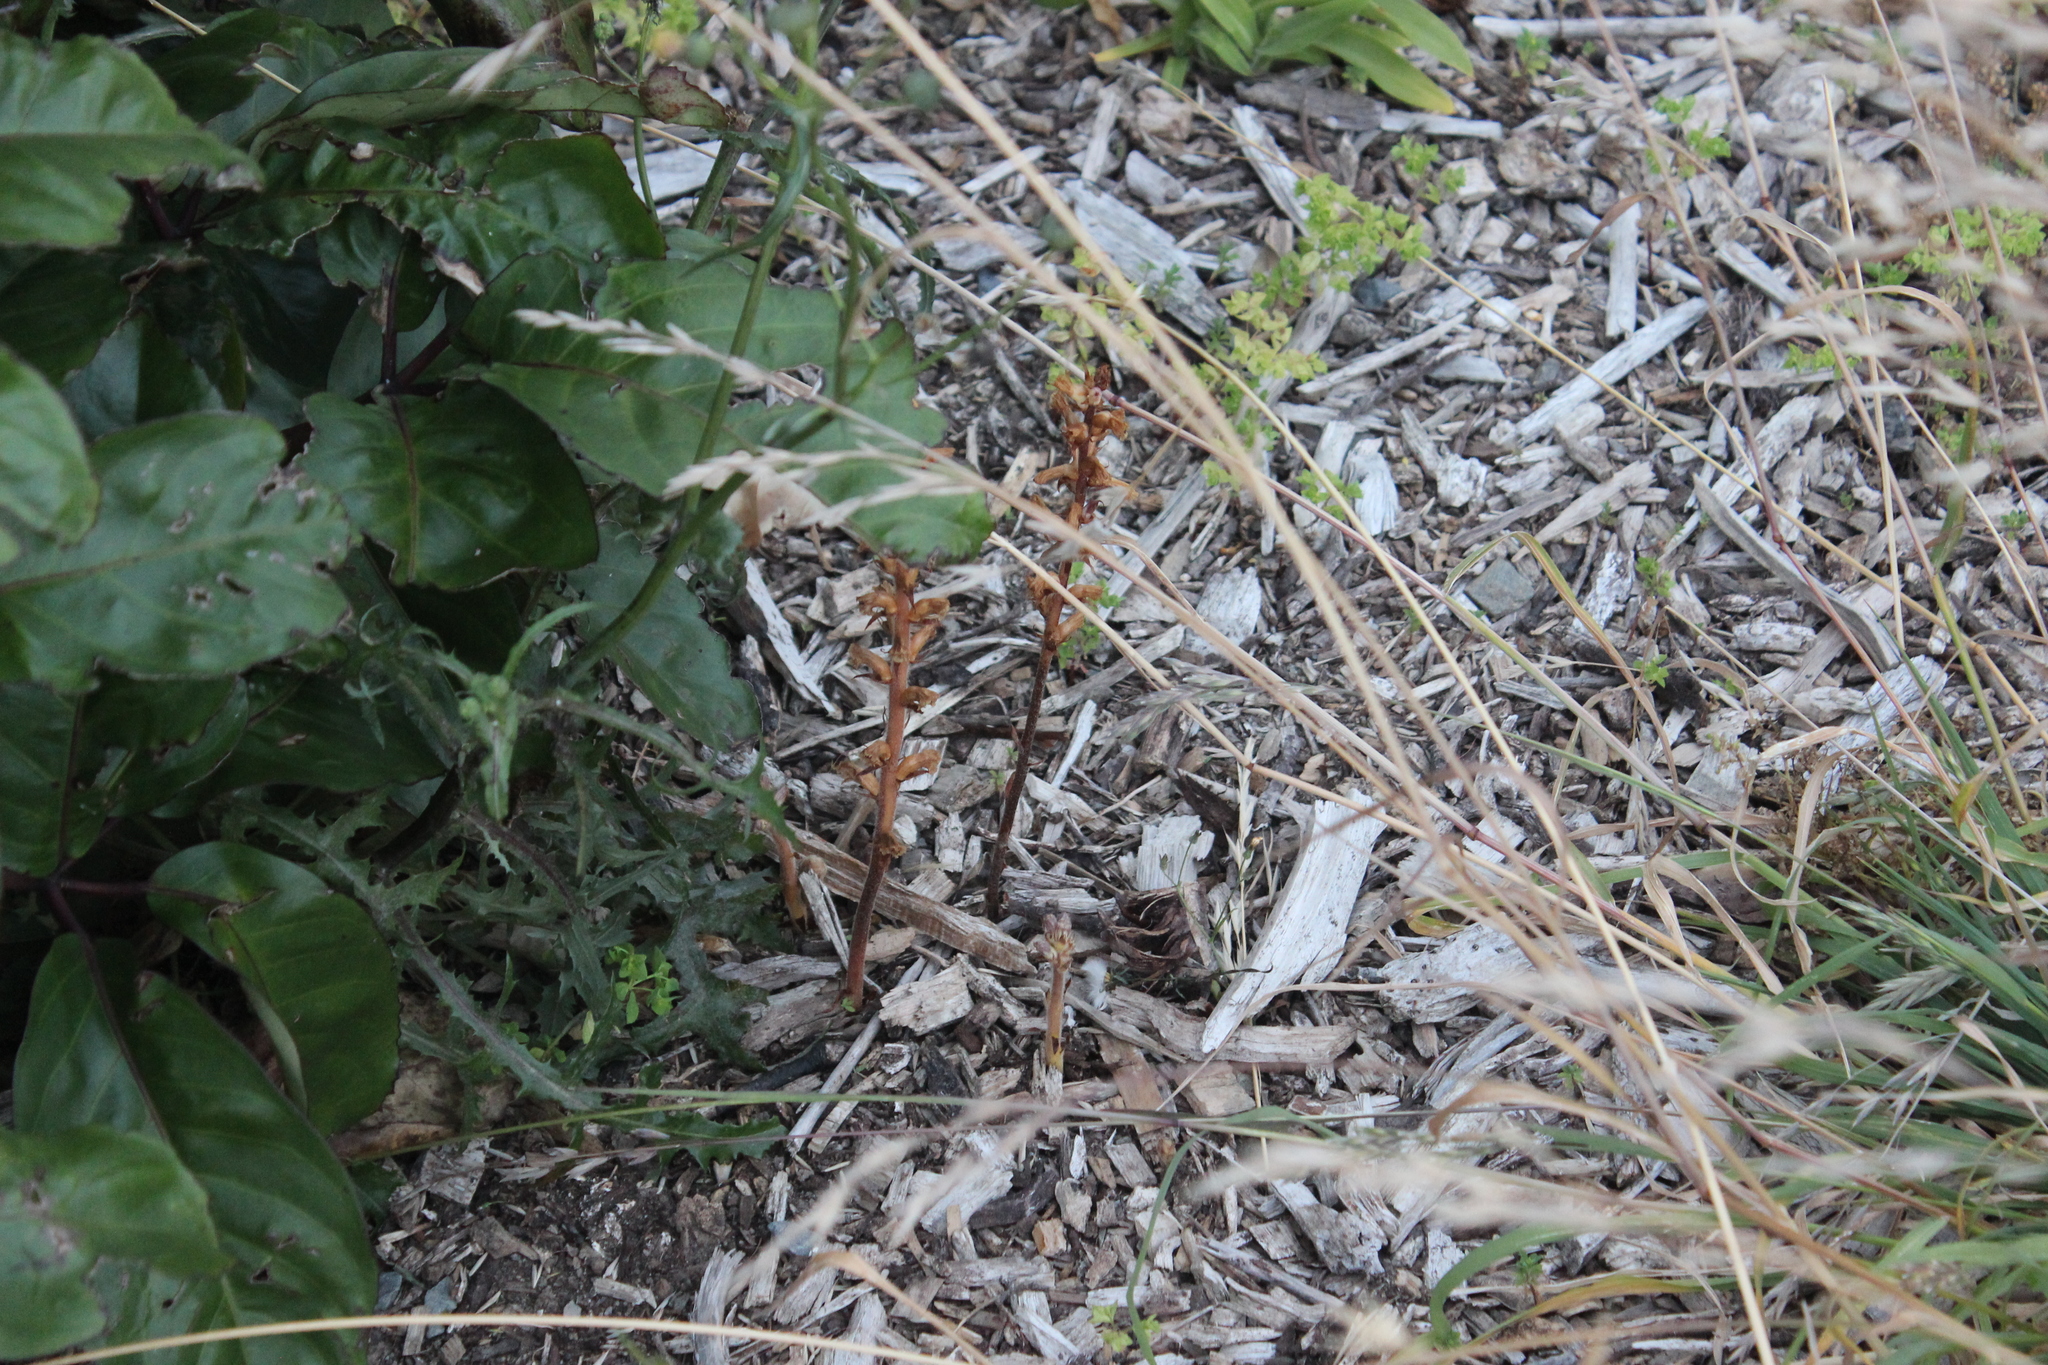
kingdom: Plantae
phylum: Tracheophyta
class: Magnoliopsida
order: Lamiales
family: Orobanchaceae
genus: Orobanche
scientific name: Orobanche minor
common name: Common broomrape
